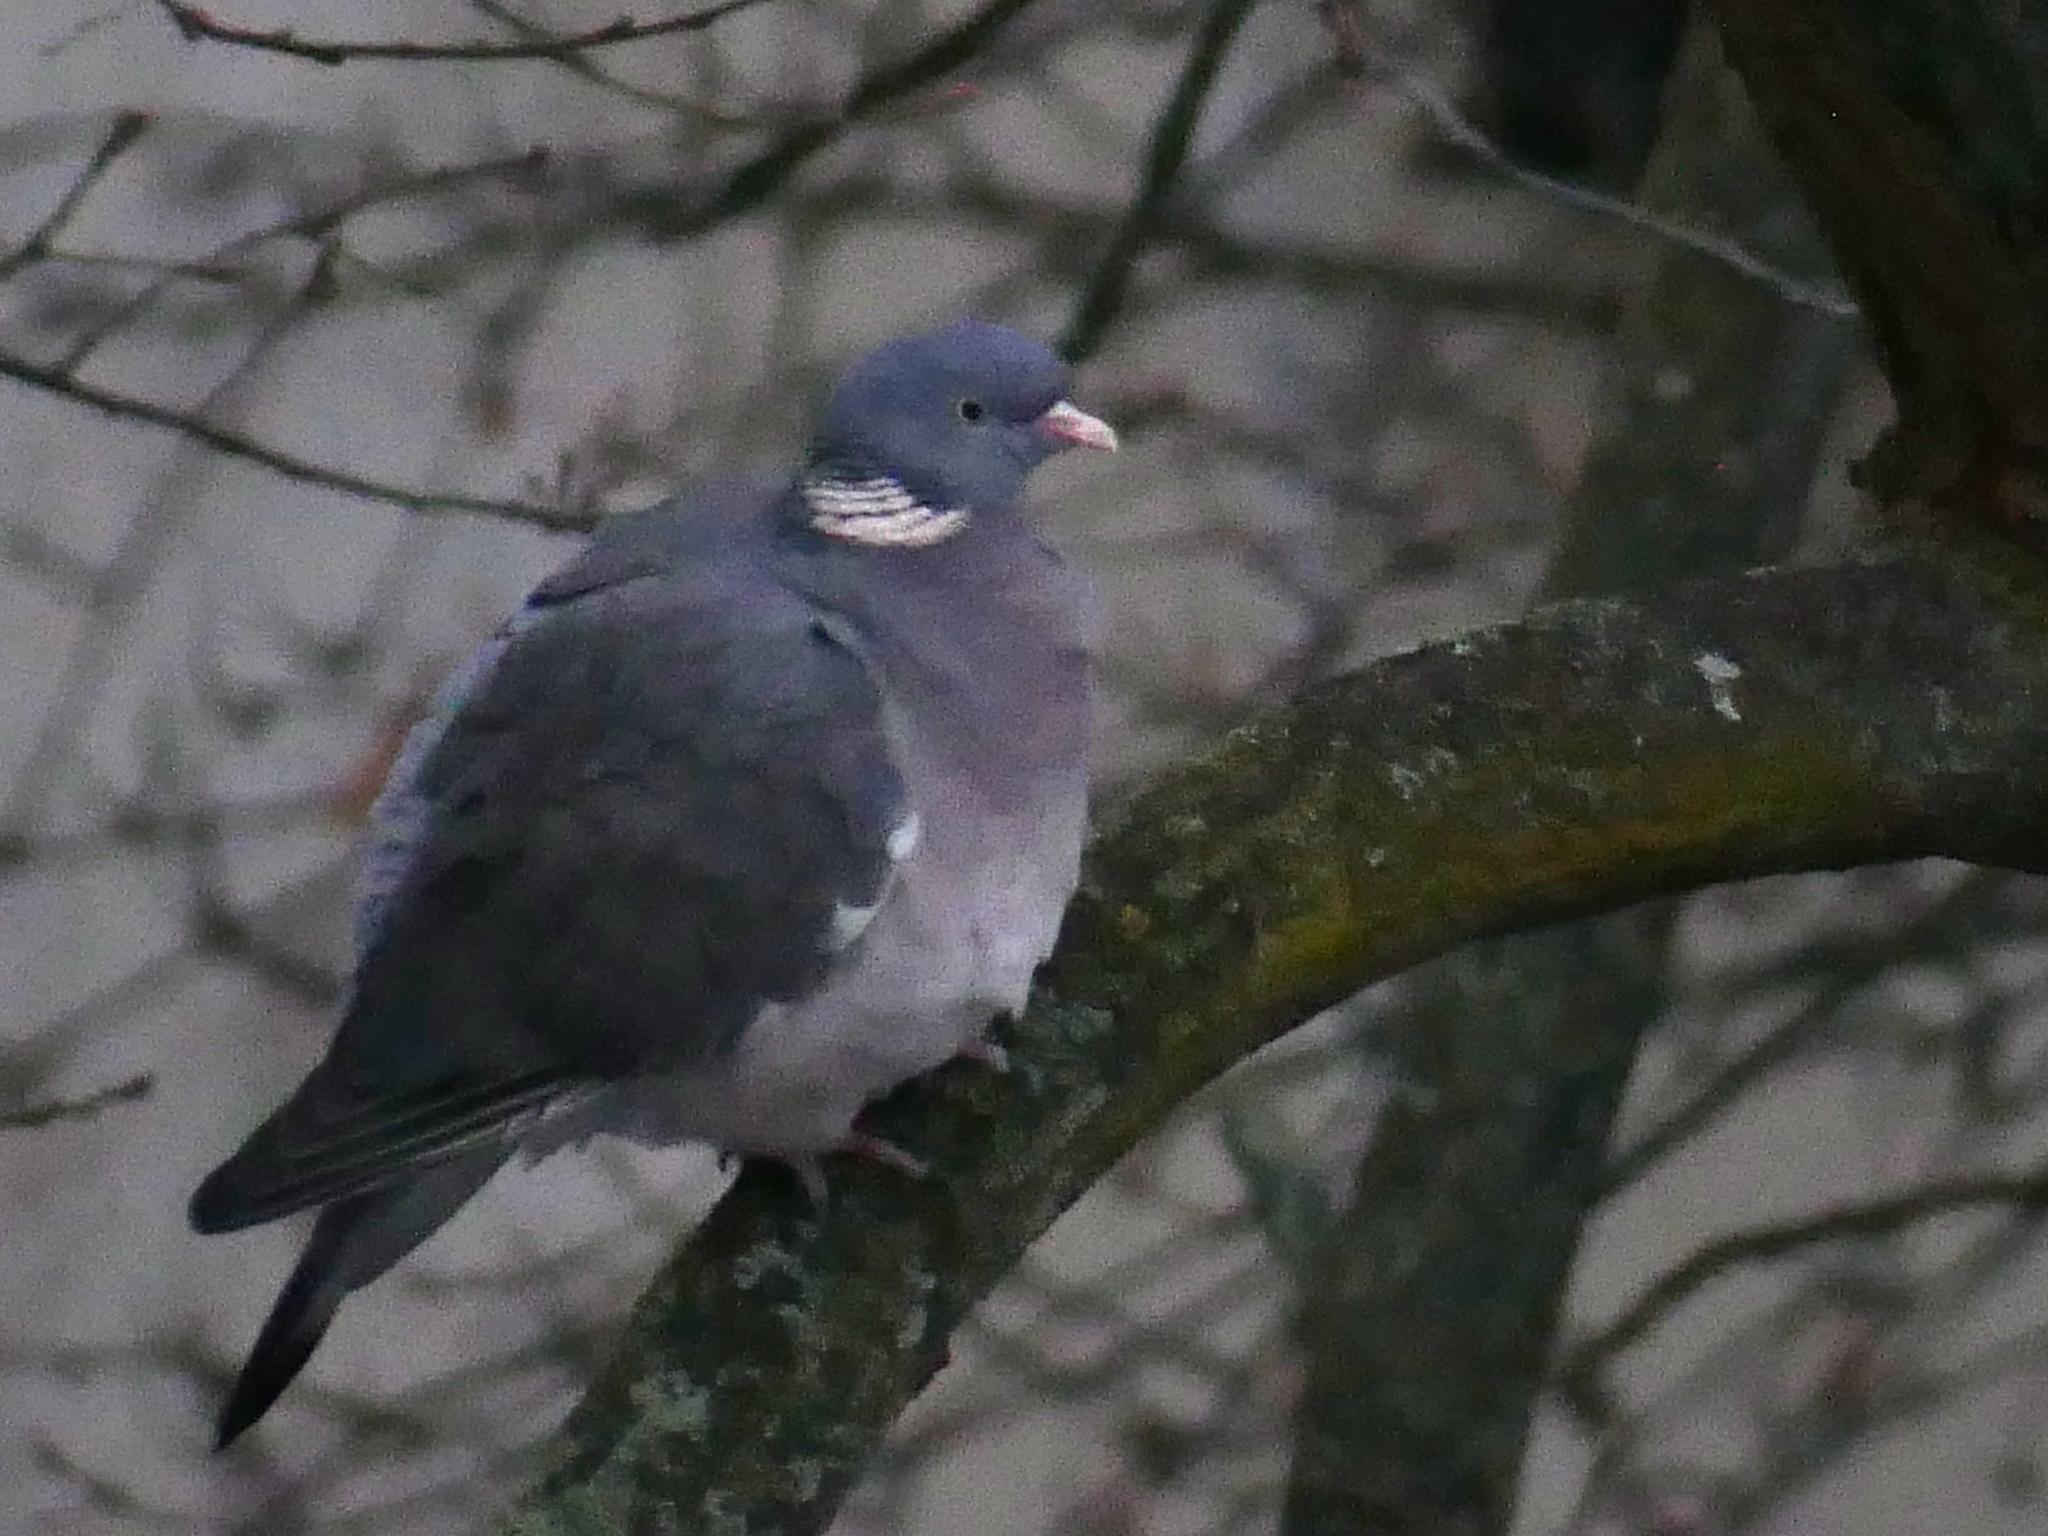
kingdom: Animalia
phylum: Chordata
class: Aves
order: Columbiformes
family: Columbidae
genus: Columba
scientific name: Columba palumbus
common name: Common wood pigeon
